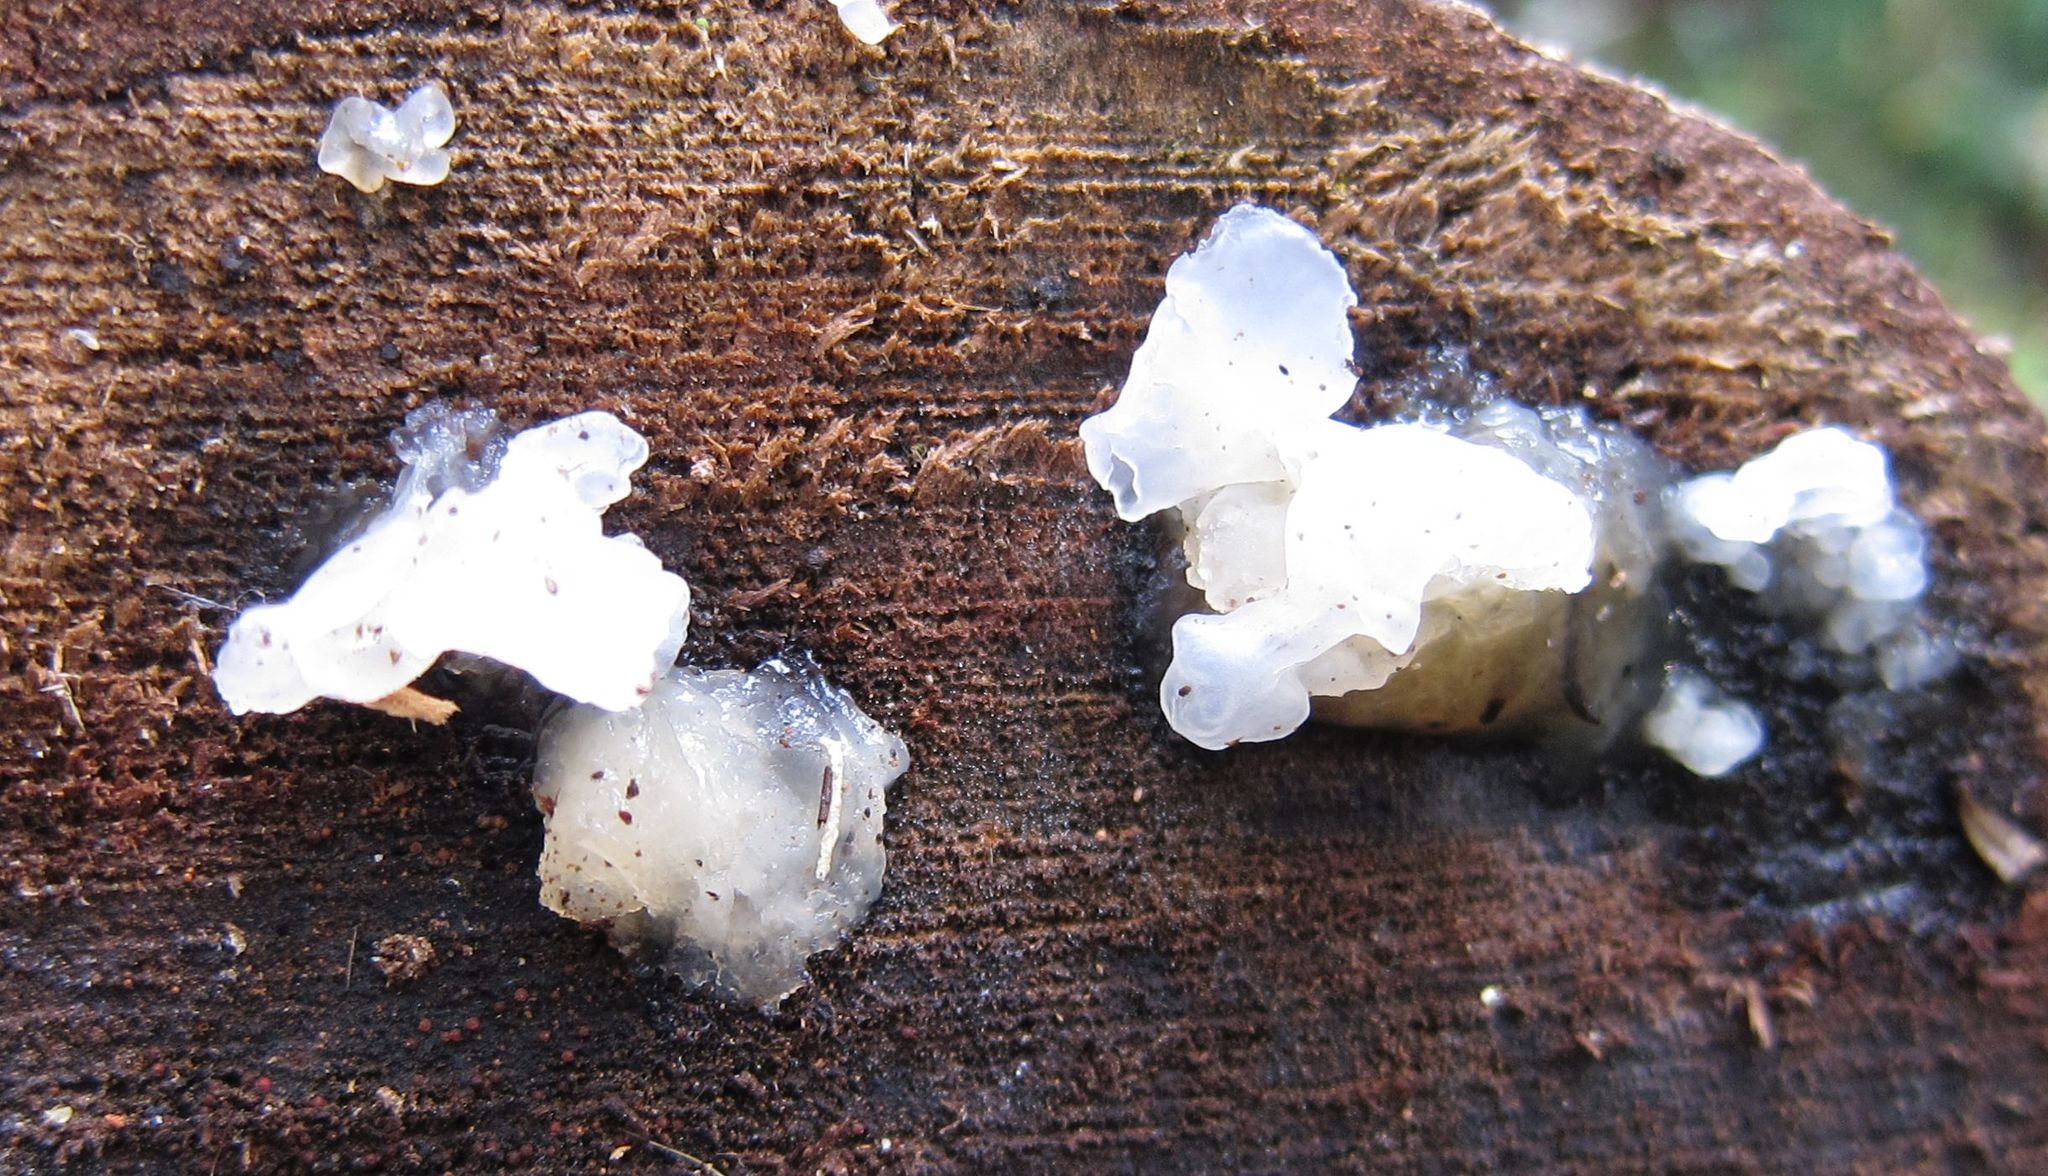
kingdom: Fungi
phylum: Basidiomycota
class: Tremellomycetes
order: Tremellales
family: Tremellaceae
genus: Tremella
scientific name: Tremella fuciformis
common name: Snow fungus
